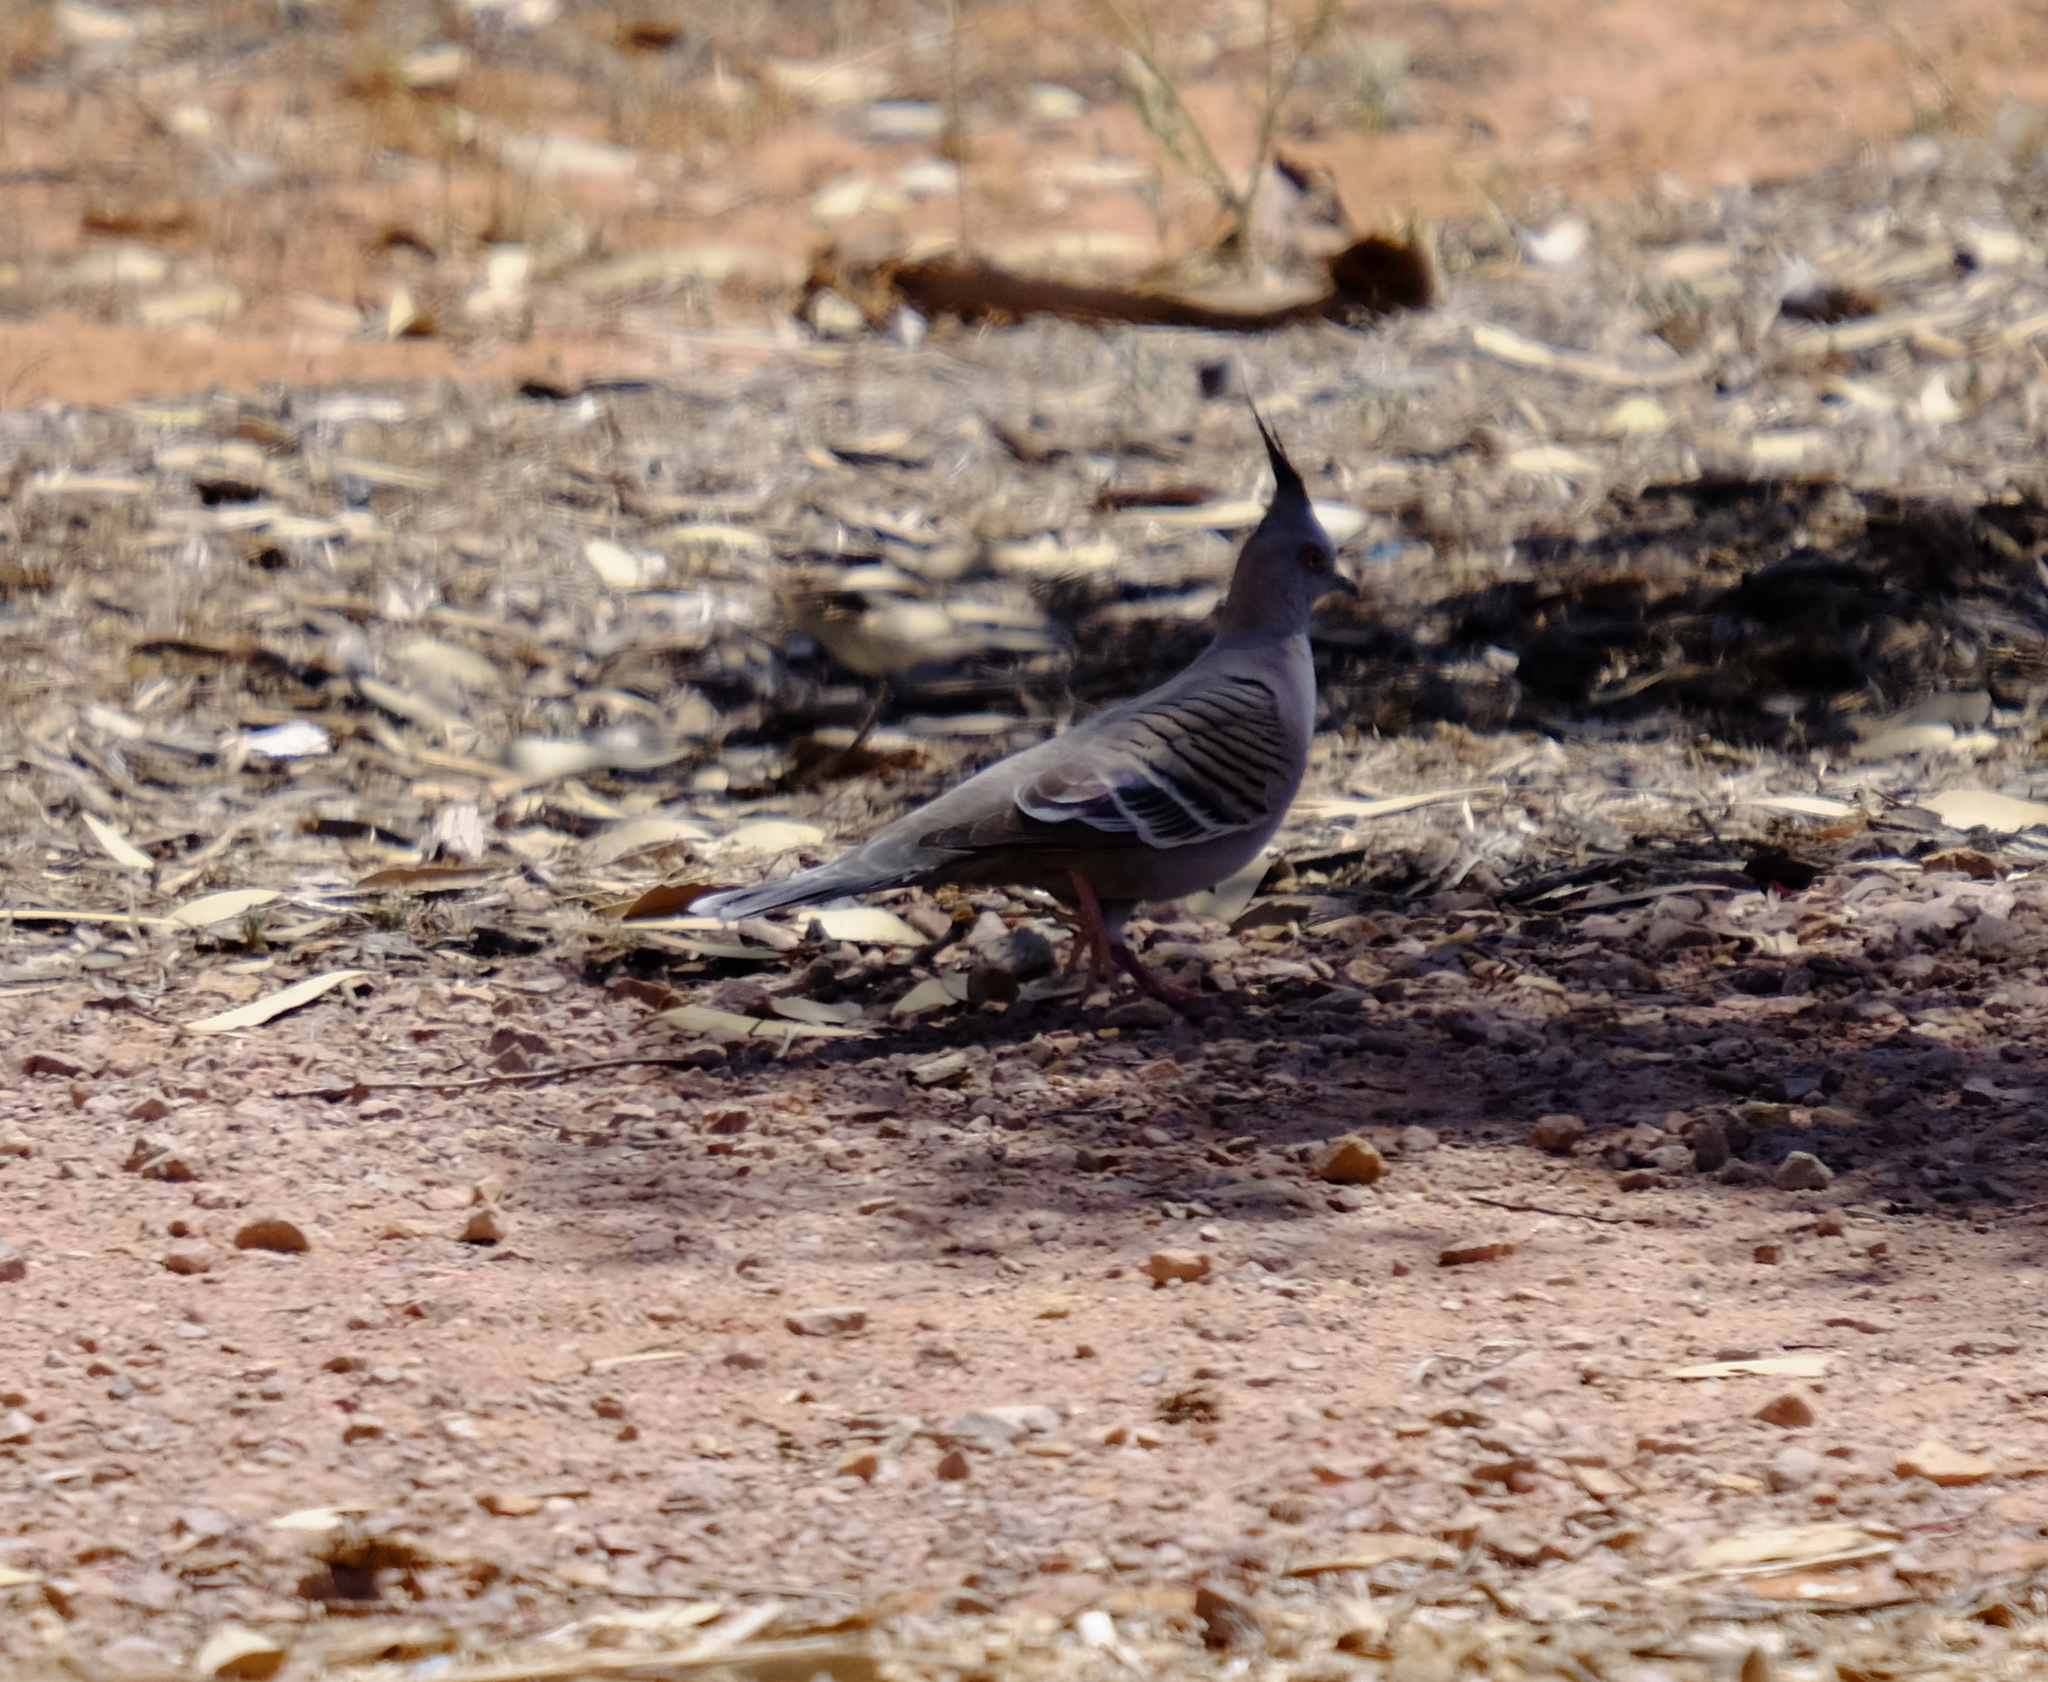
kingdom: Animalia
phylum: Chordata
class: Aves
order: Columbiformes
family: Columbidae
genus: Ocyphaps
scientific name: Ocyphaps lophotes
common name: Crested pigeon
